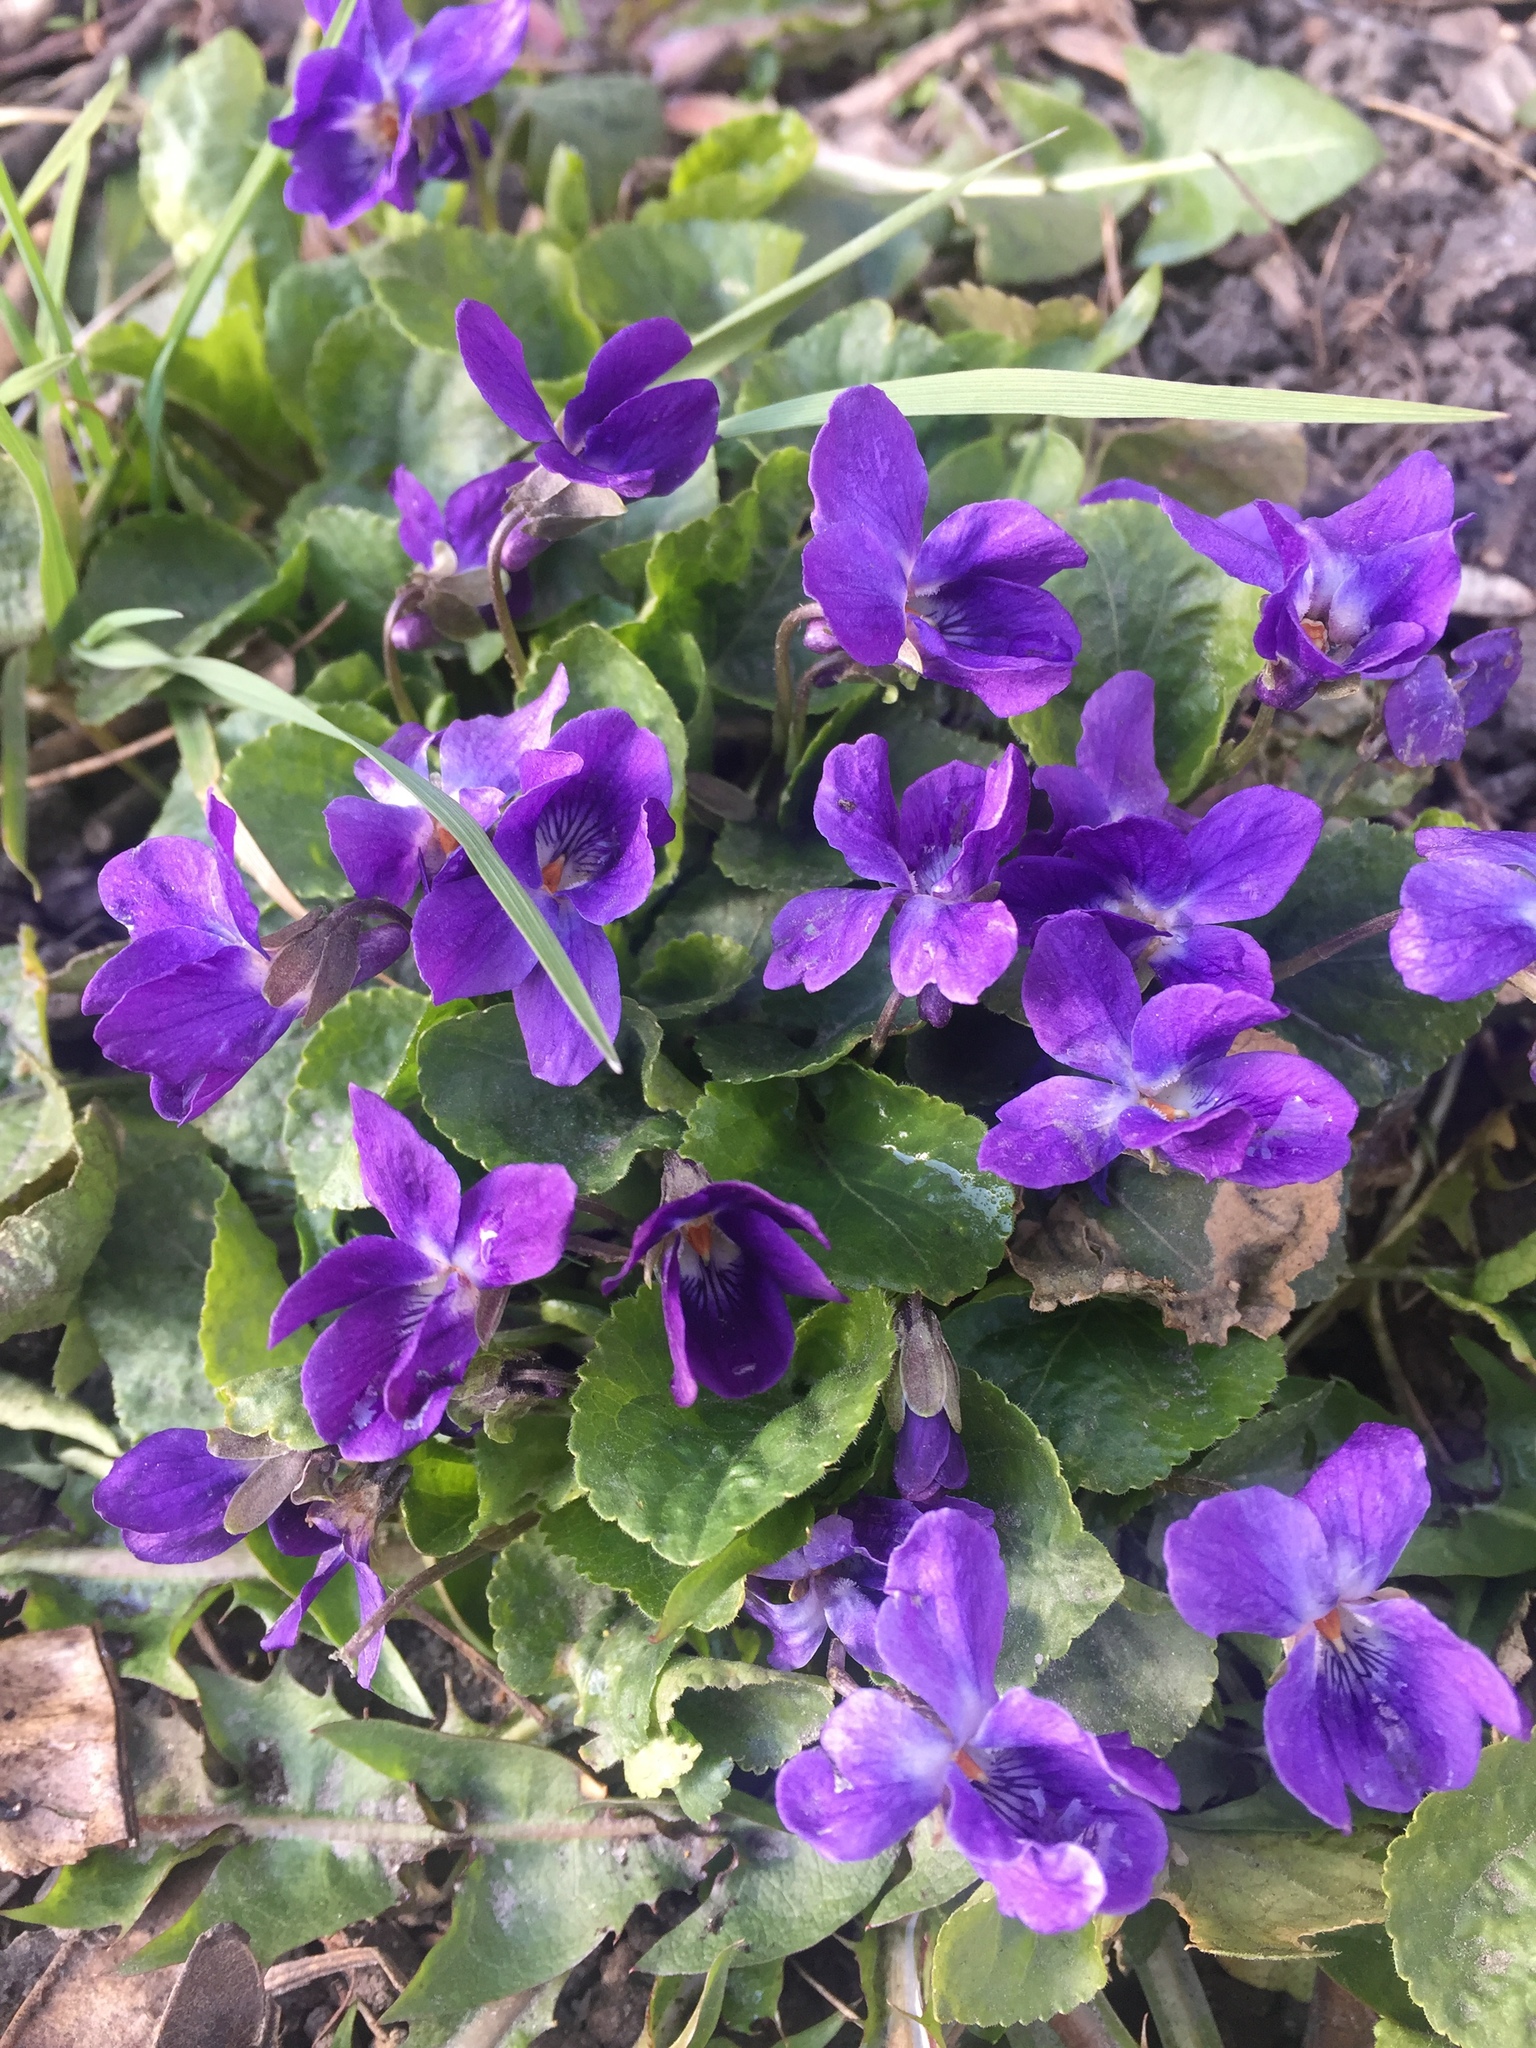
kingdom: Plantae
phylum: Tracheophyta
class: Magnoliopsida
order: Malpighiales
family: Violaceae
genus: Viola
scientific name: Viola odorata
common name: Sweet violet
